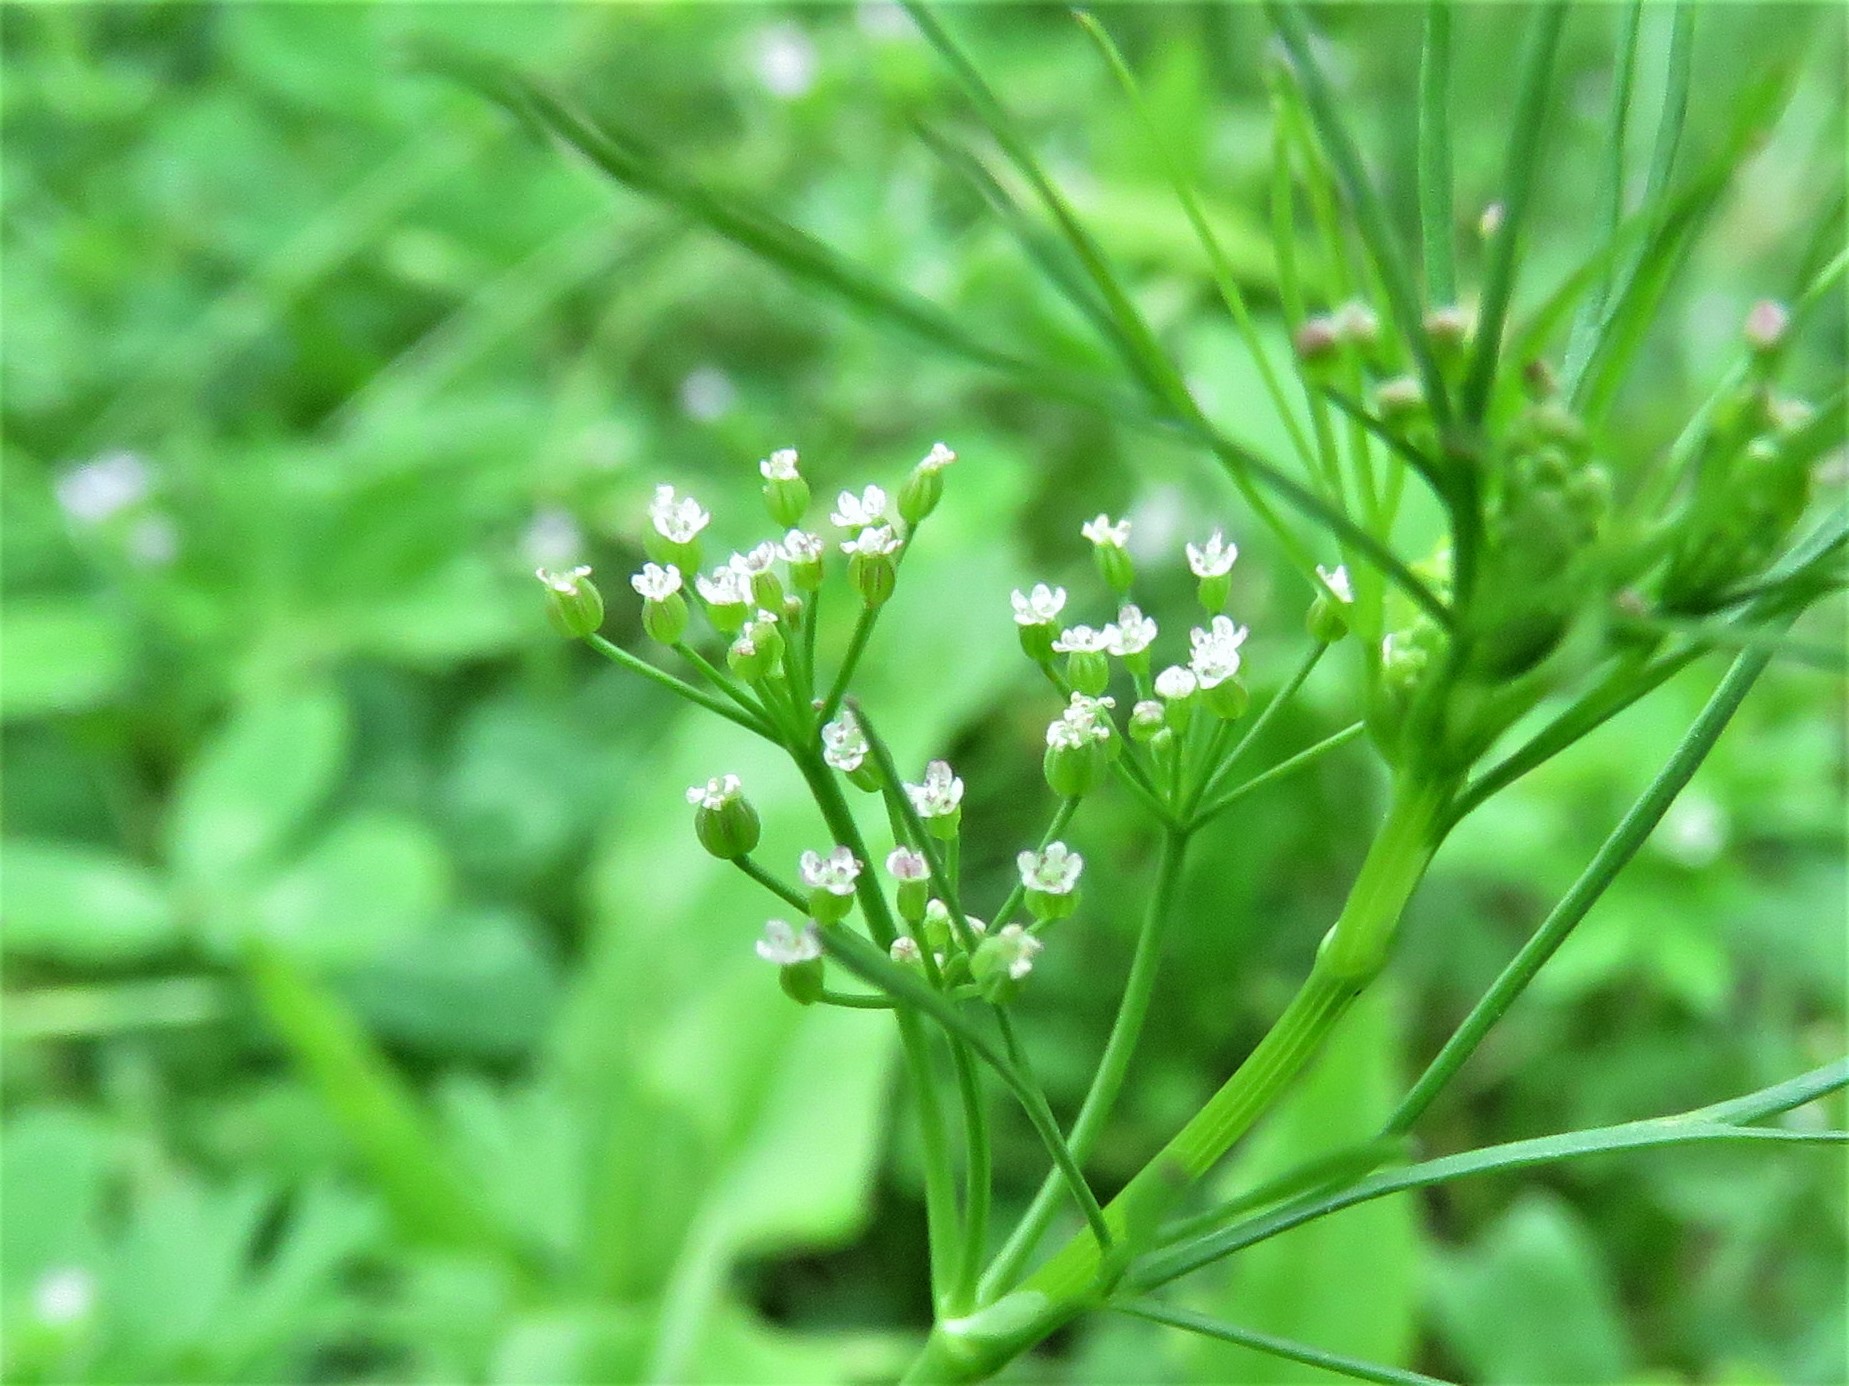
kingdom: Plantae
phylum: Tracheophyta
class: Magnoliopsida
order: Apiales
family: Apiaceae
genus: Cyclospermum
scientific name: Cyclospermum leptophyllum
